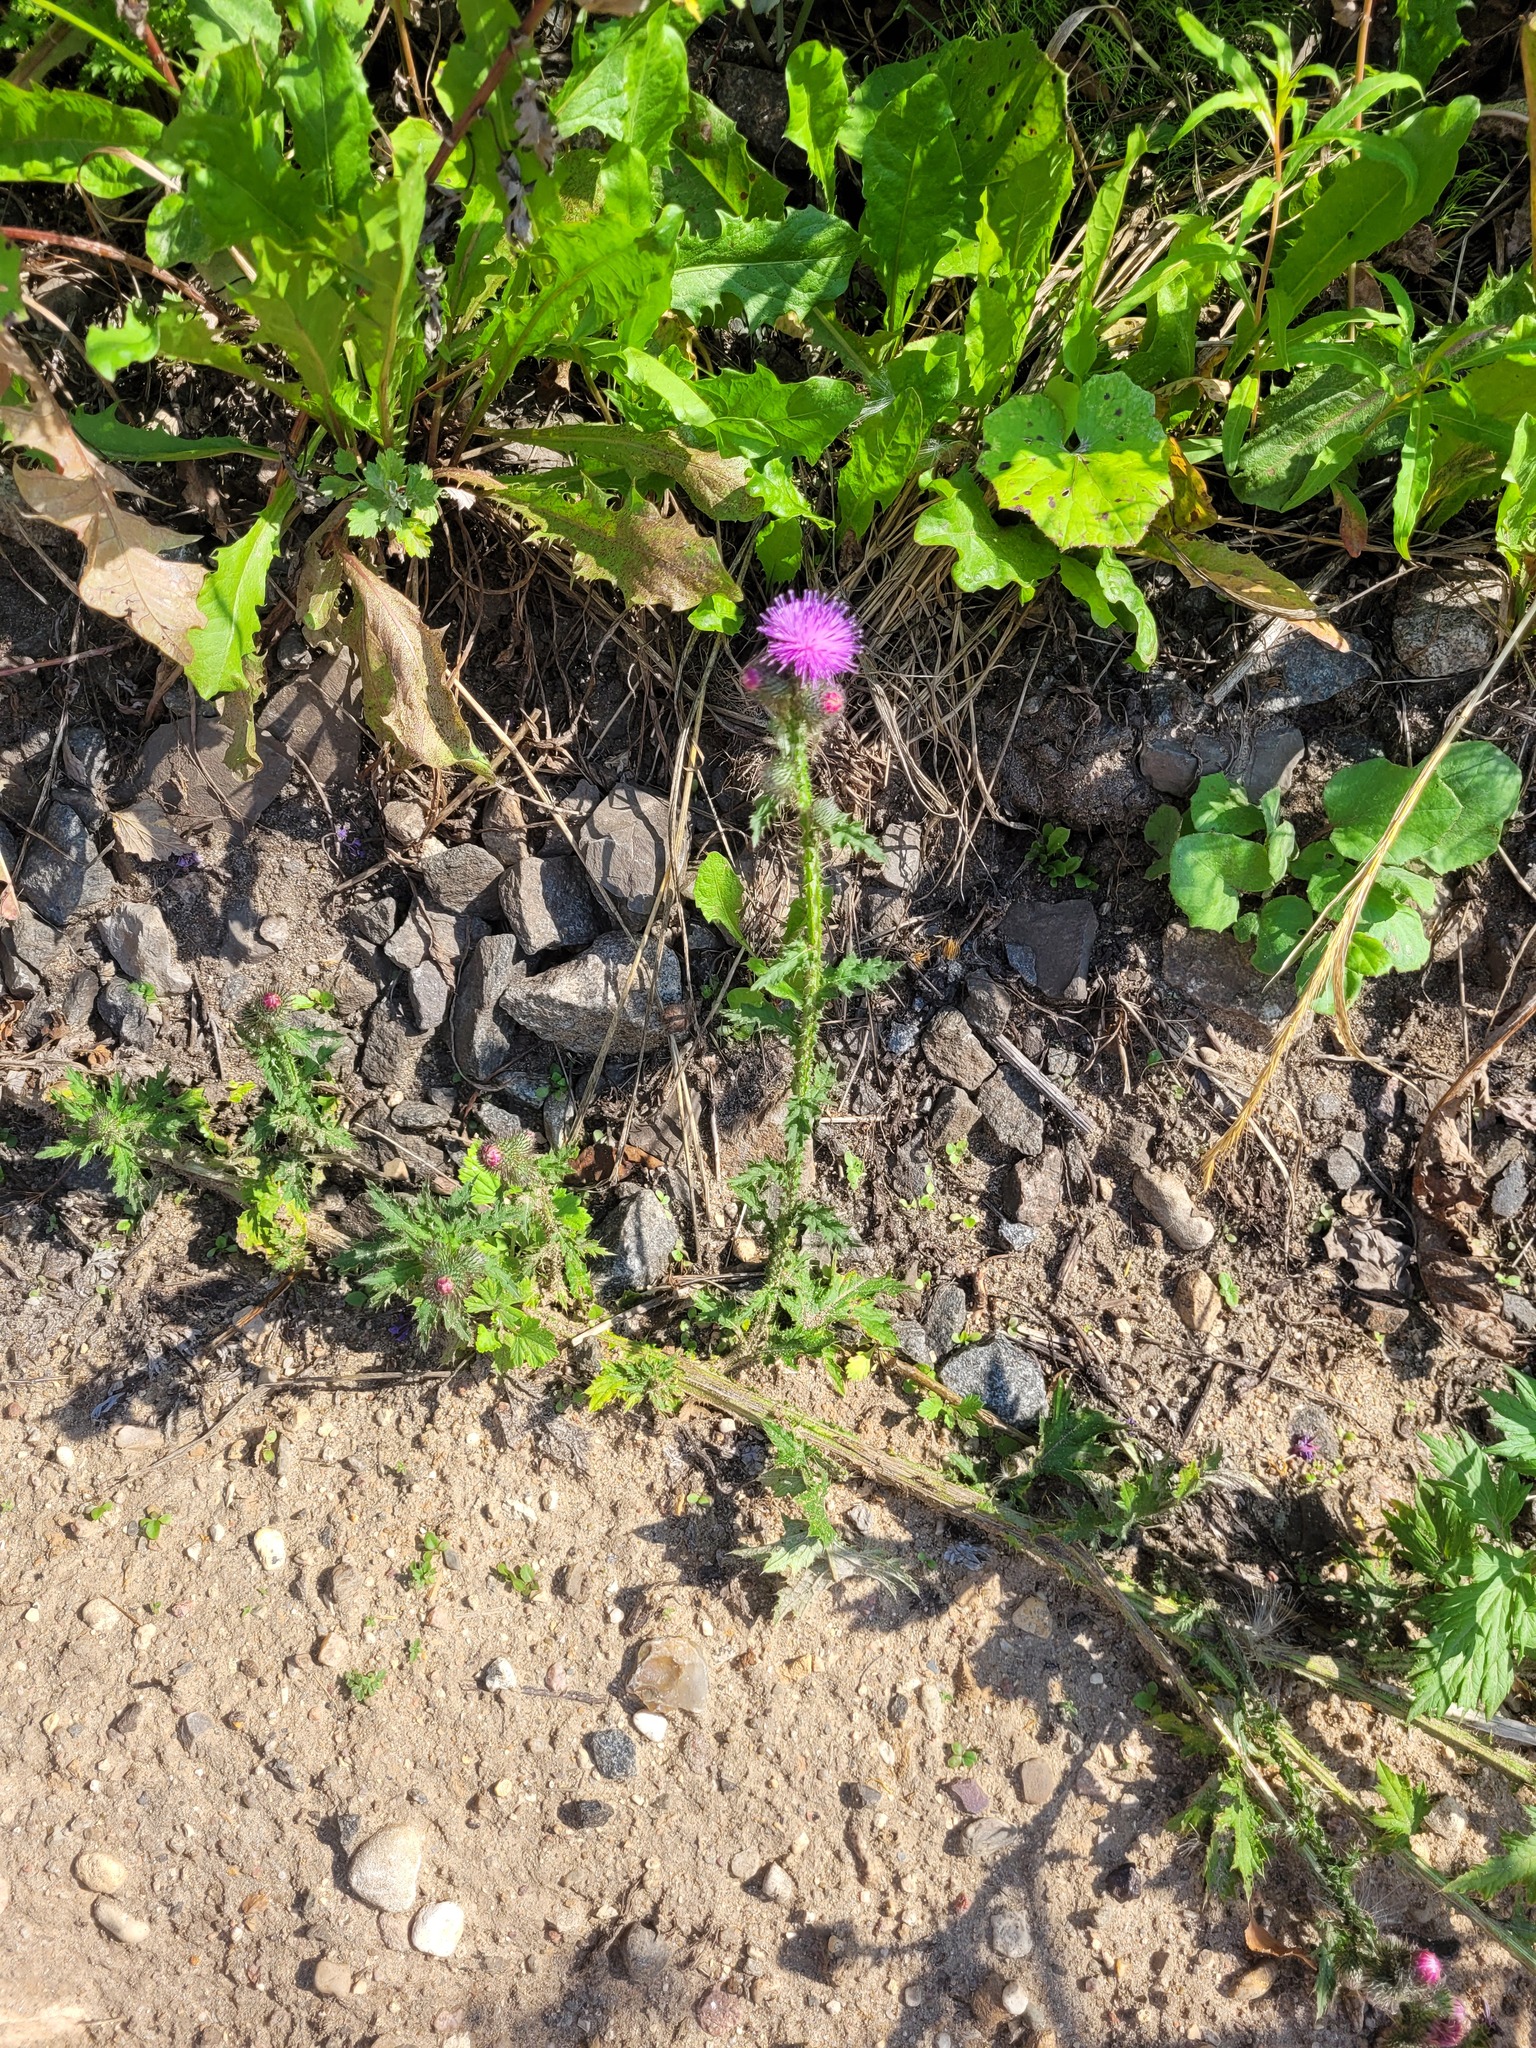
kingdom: Plantae
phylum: Tracheophyta
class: Magnoliopsida
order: Asterales
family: Asteraceae
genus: Carduus
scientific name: Carduus crispus
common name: Welted thistle
